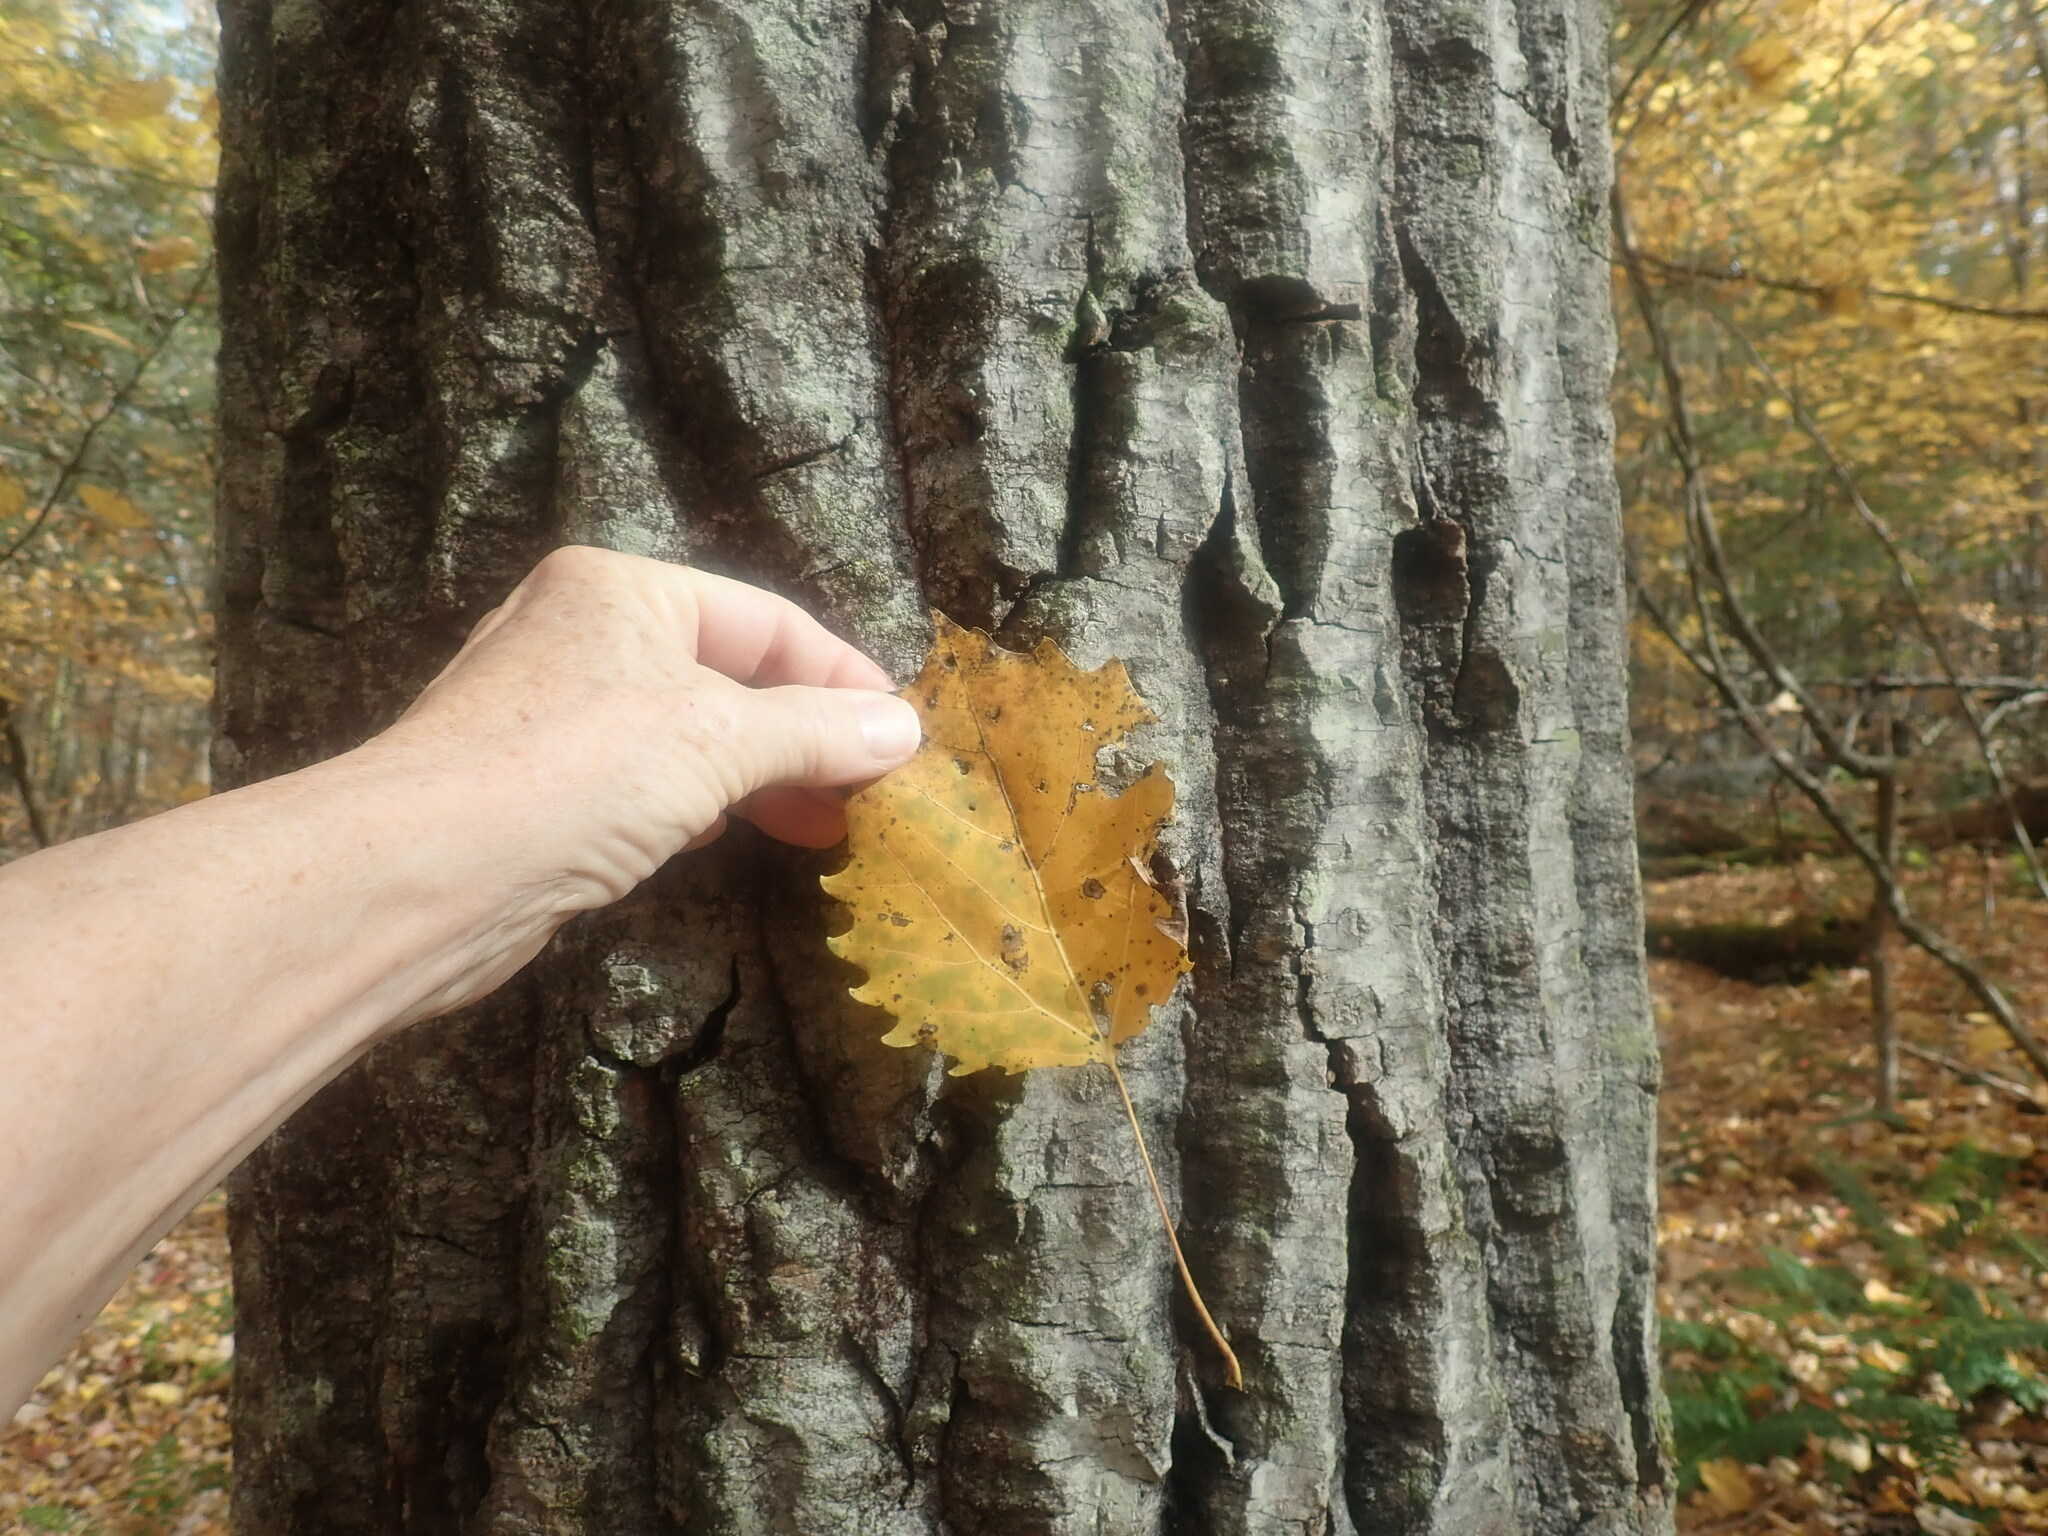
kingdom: Plantae
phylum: Tracheophyta
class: Magnoliopsida
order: Malpighiales
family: Salicaceae
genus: Populus
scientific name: Populus grandidentata
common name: Bigtooth aspen
